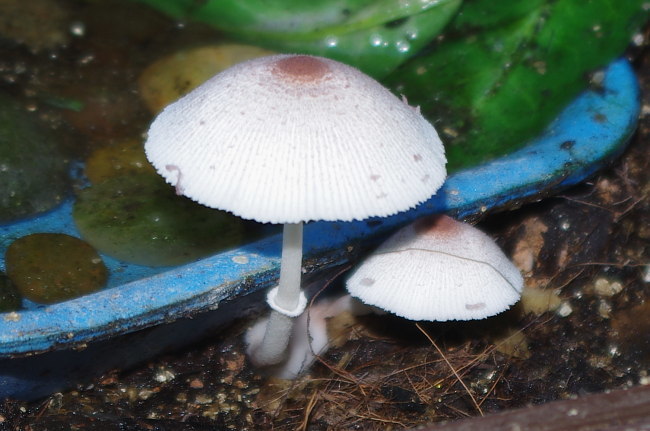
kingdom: Fungi
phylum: Basidiomycota
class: Agaricomycetes
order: Agaricales
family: Agaricaceae
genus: Leucocoprinus
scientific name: Leucocoprinus ianthinus
